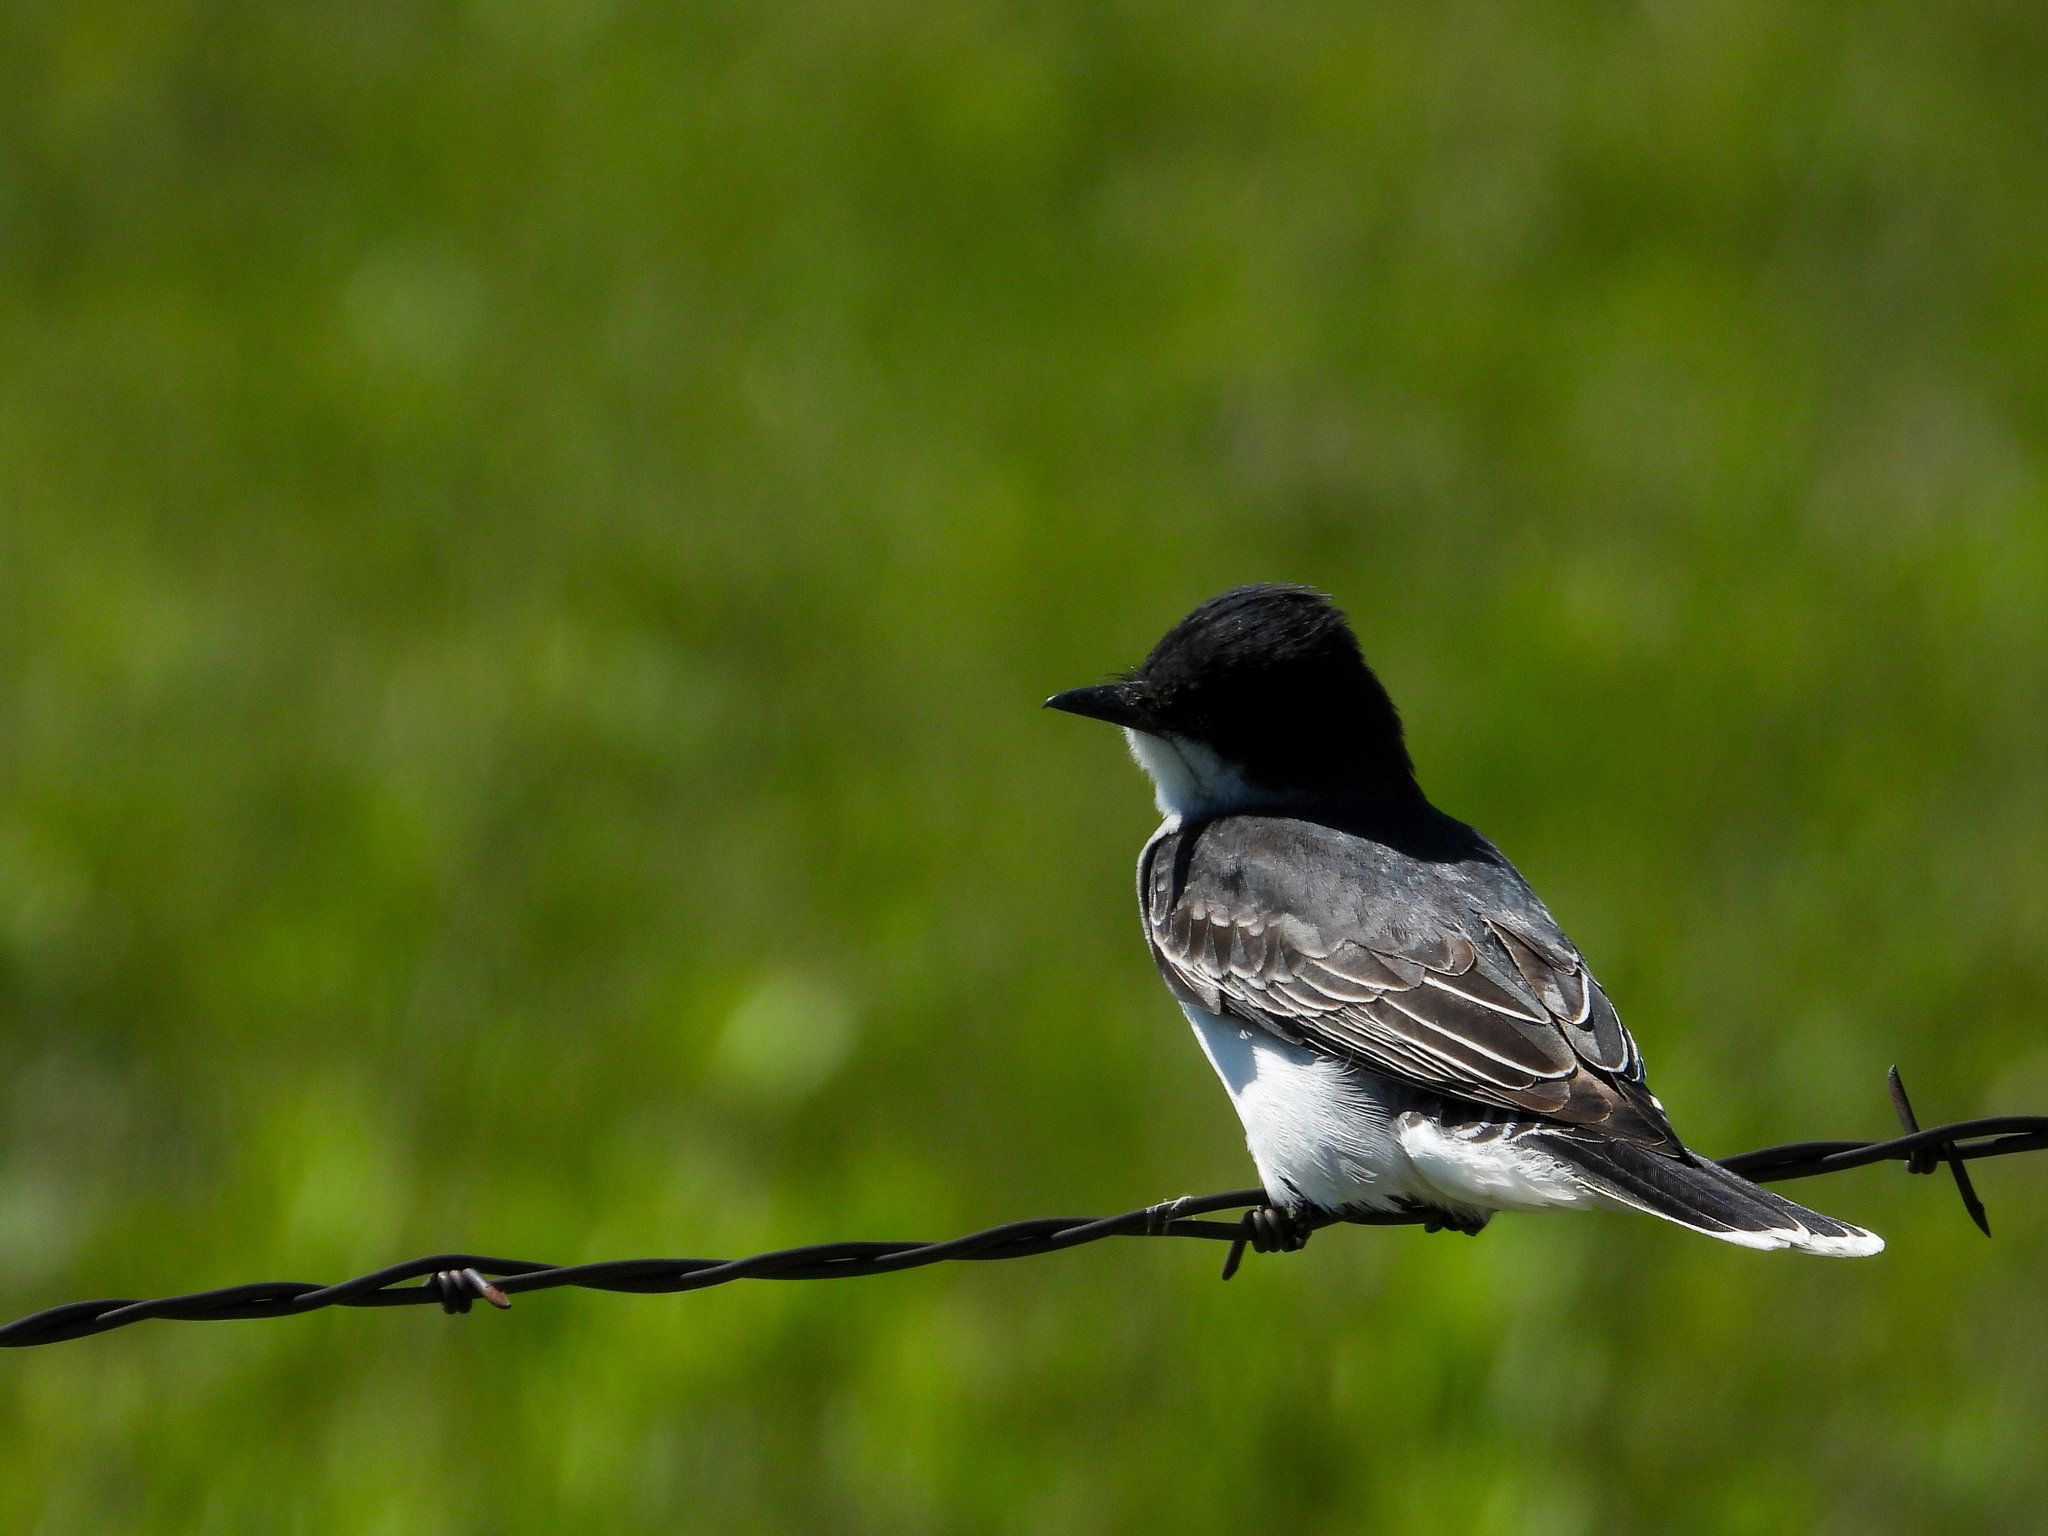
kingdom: Animalia
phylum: Chordata
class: Aves
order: Passeriformes
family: Tyrannidae
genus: Tyrannus
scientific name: Tyrannus tyrannus
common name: Eastern kingbird
